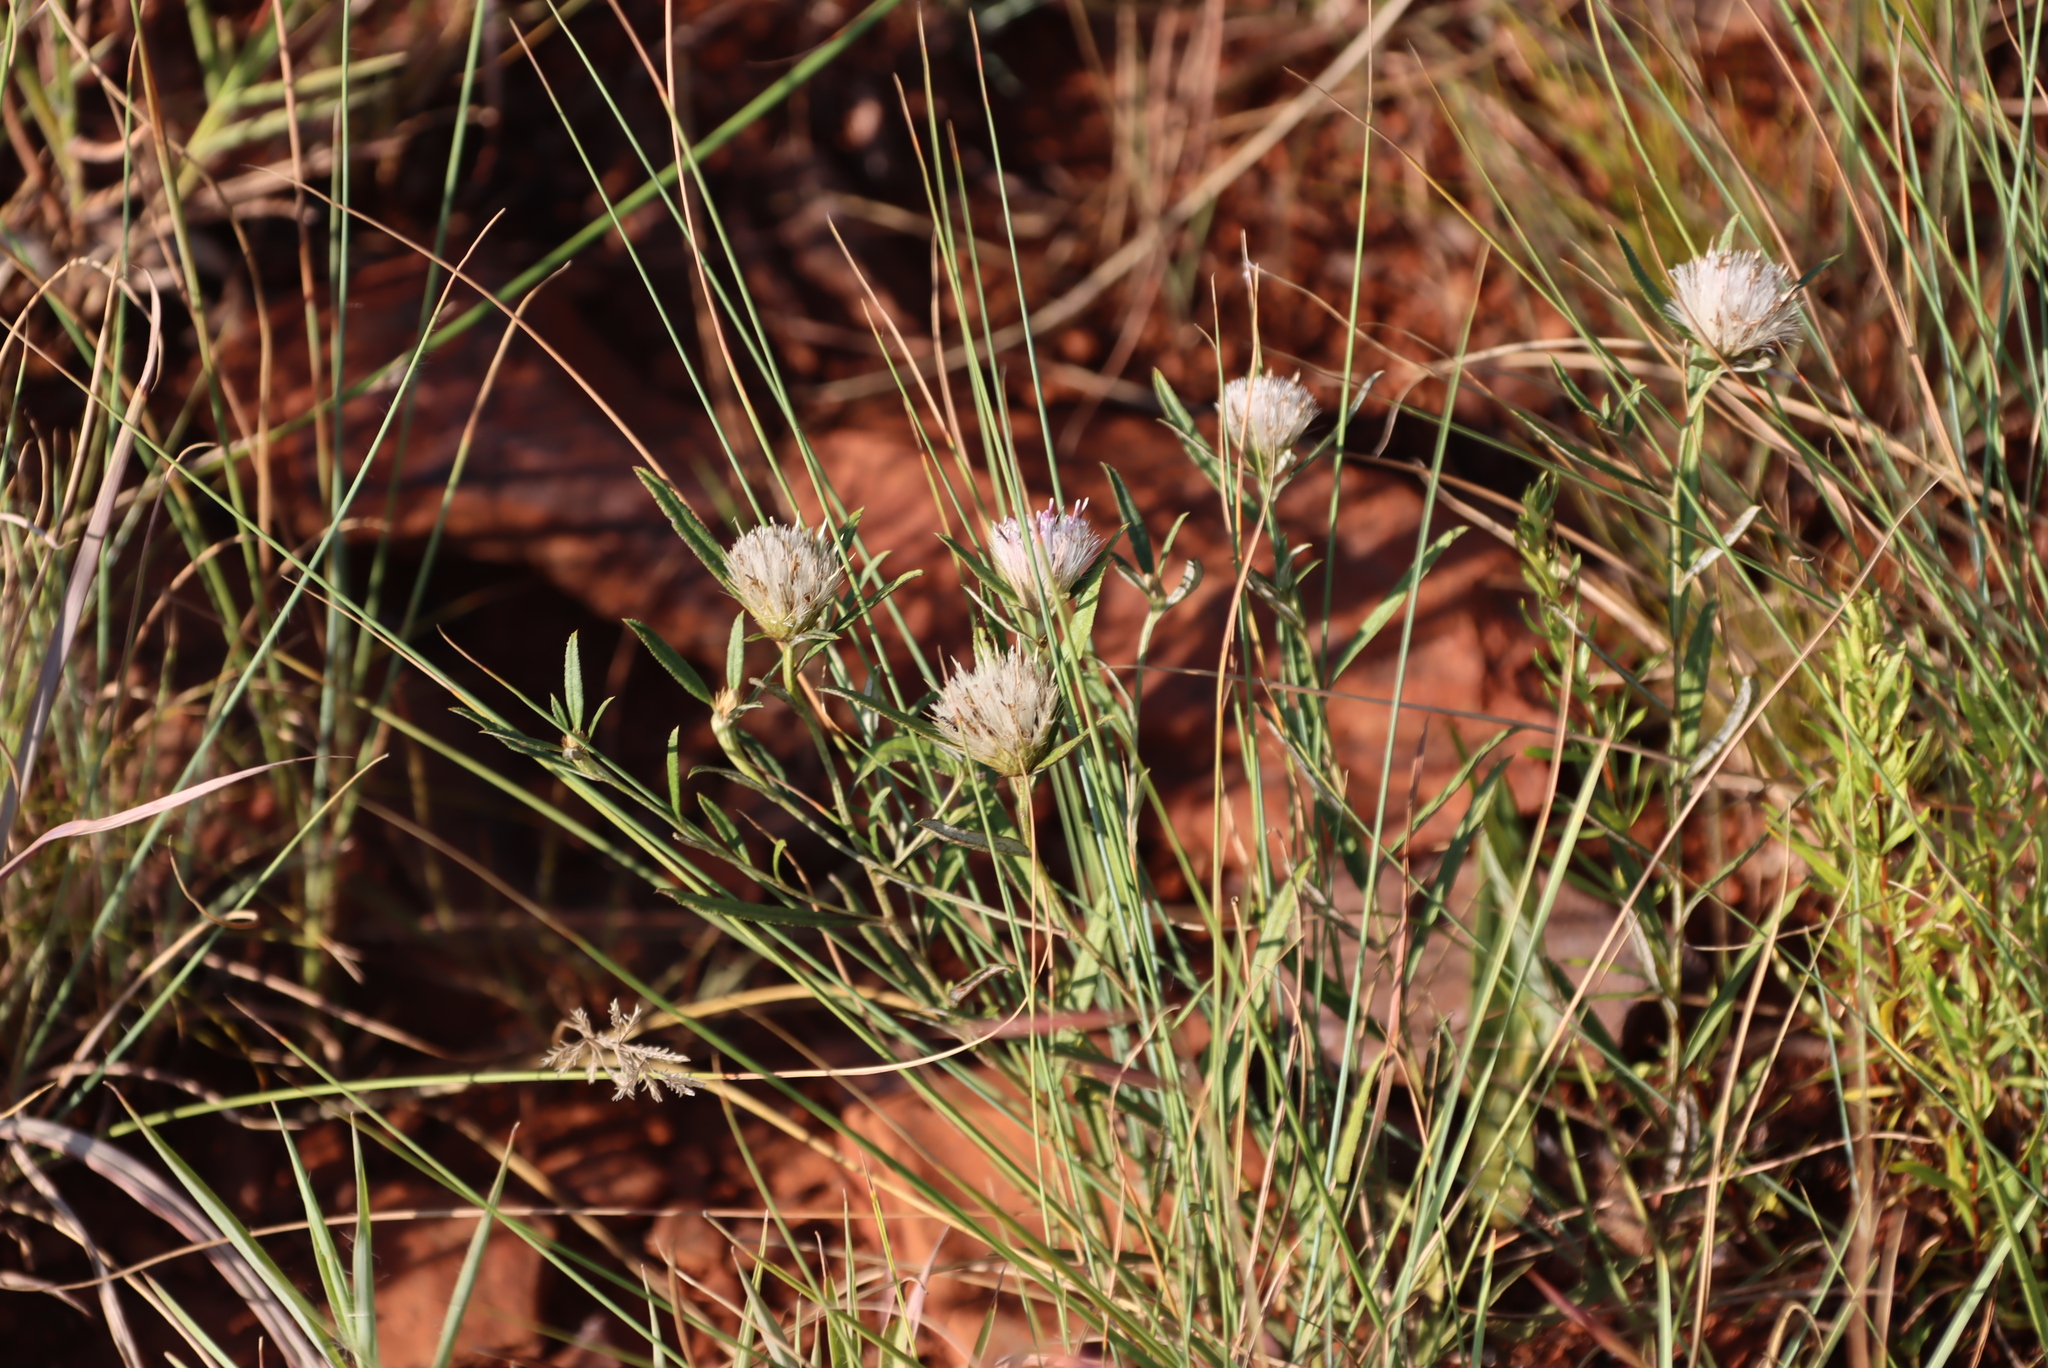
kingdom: Plantae
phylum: Tracheophyta
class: Magnoliopsida
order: Asterales
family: Asteraceae
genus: Dicoma
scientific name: Dicoma anomala
